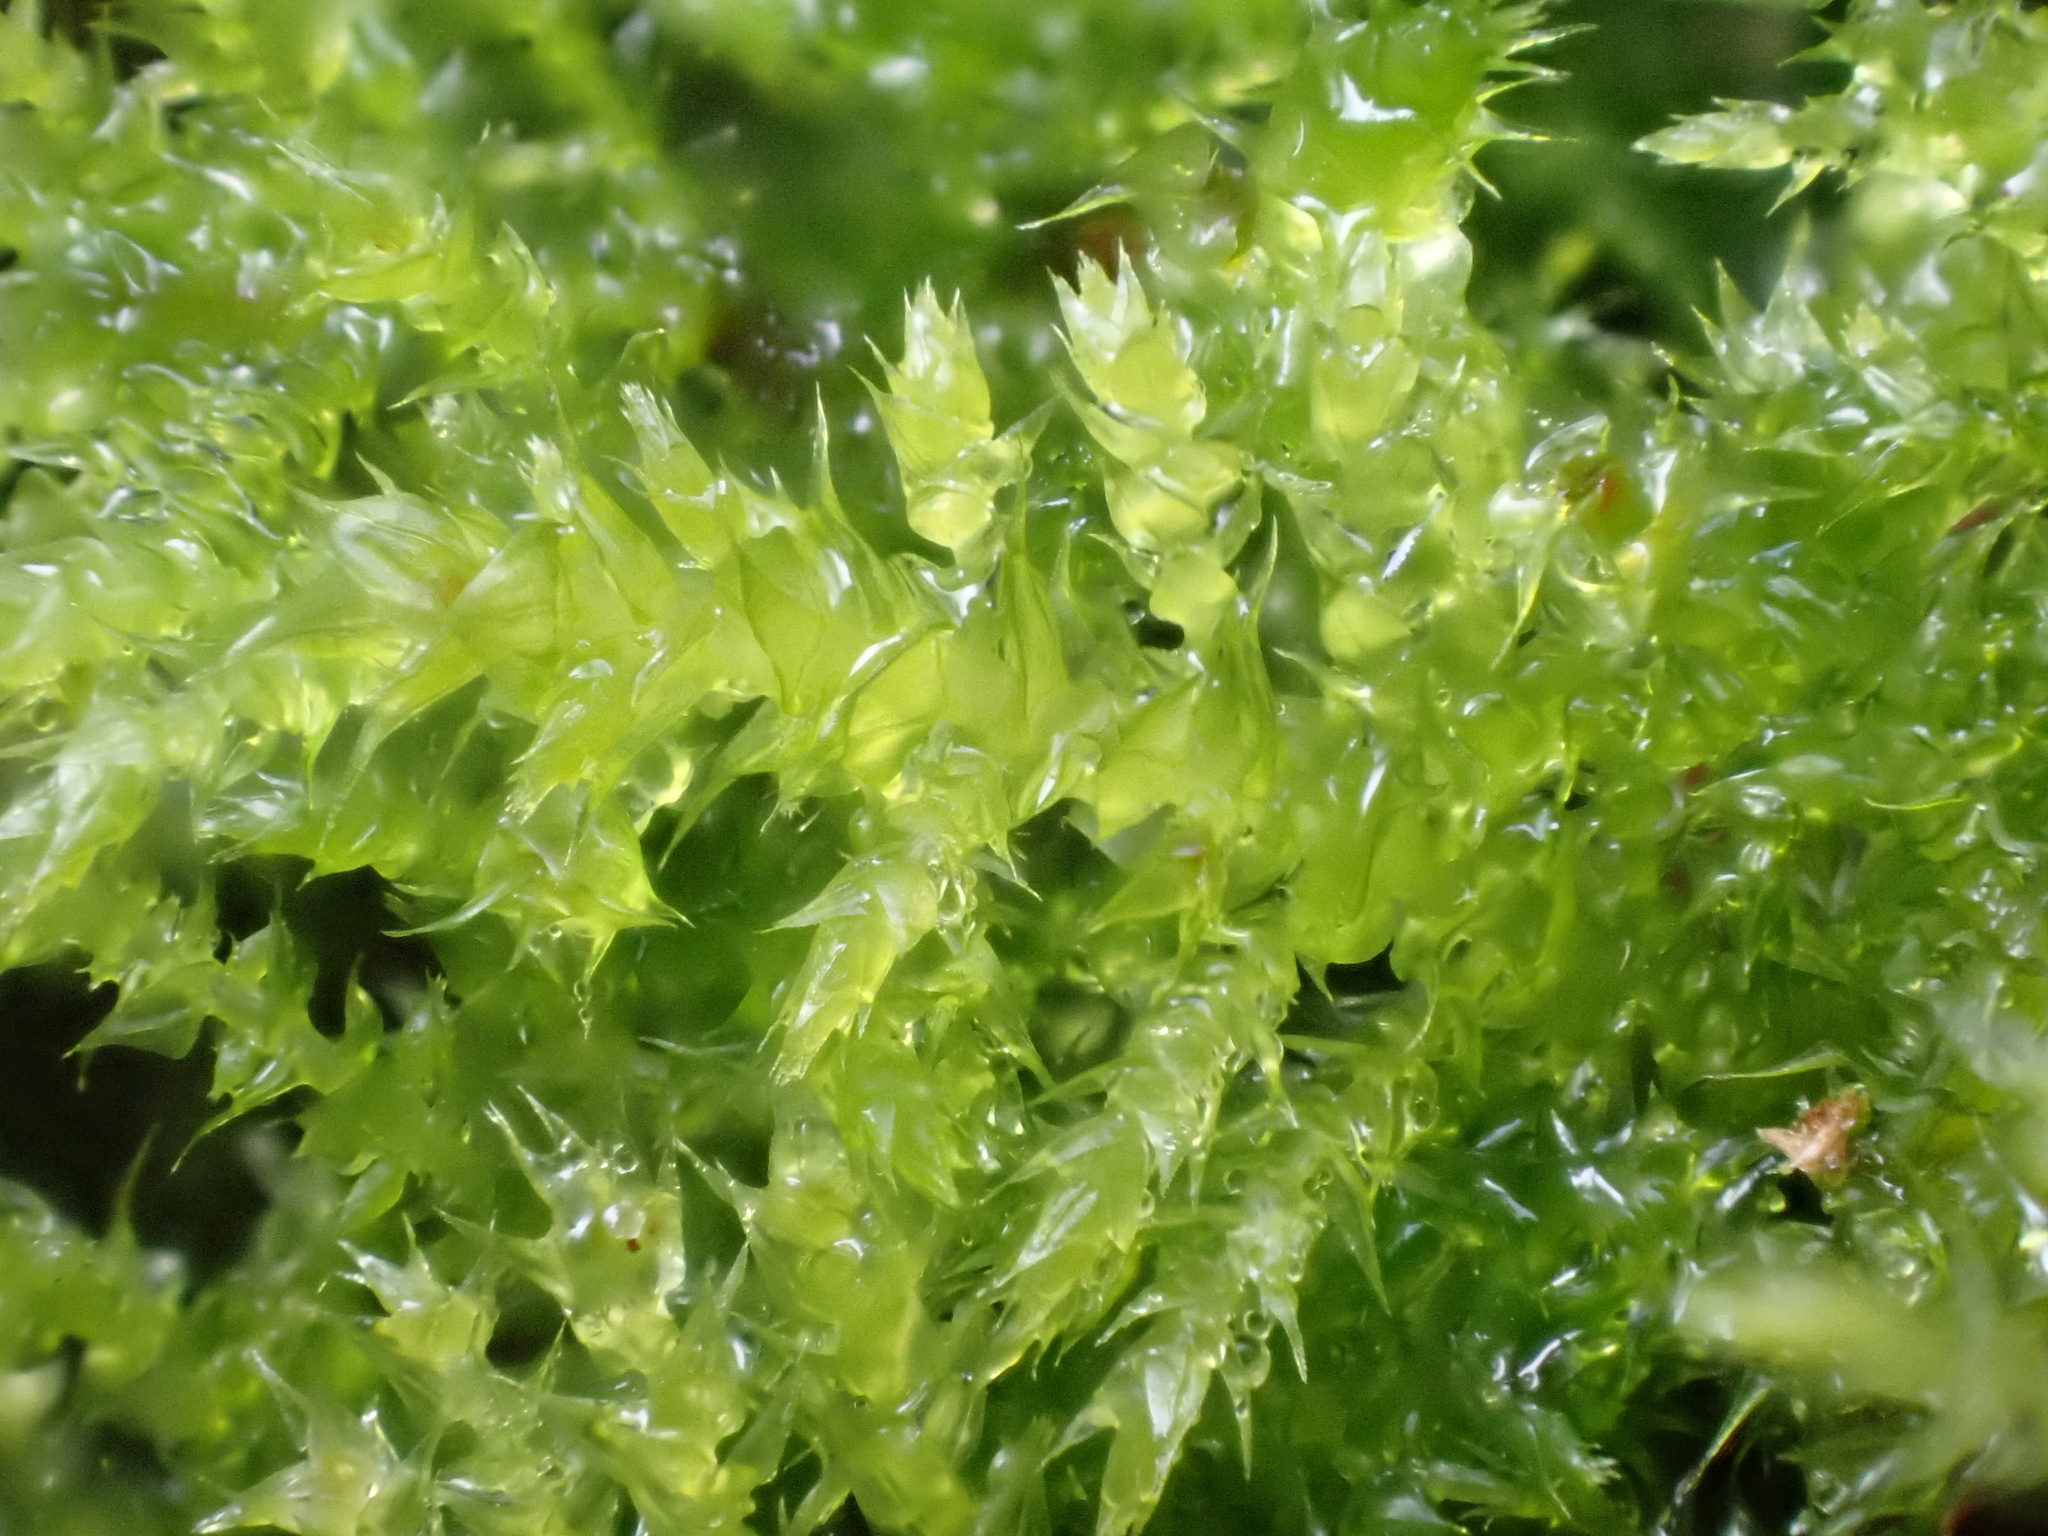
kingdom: Plantae
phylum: Bryophyta
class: Bryopsida
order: Hypnales
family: Brachytheciaceae
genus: Kindbergia
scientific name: Kindbergia praelonga
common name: Slender beaked moss
